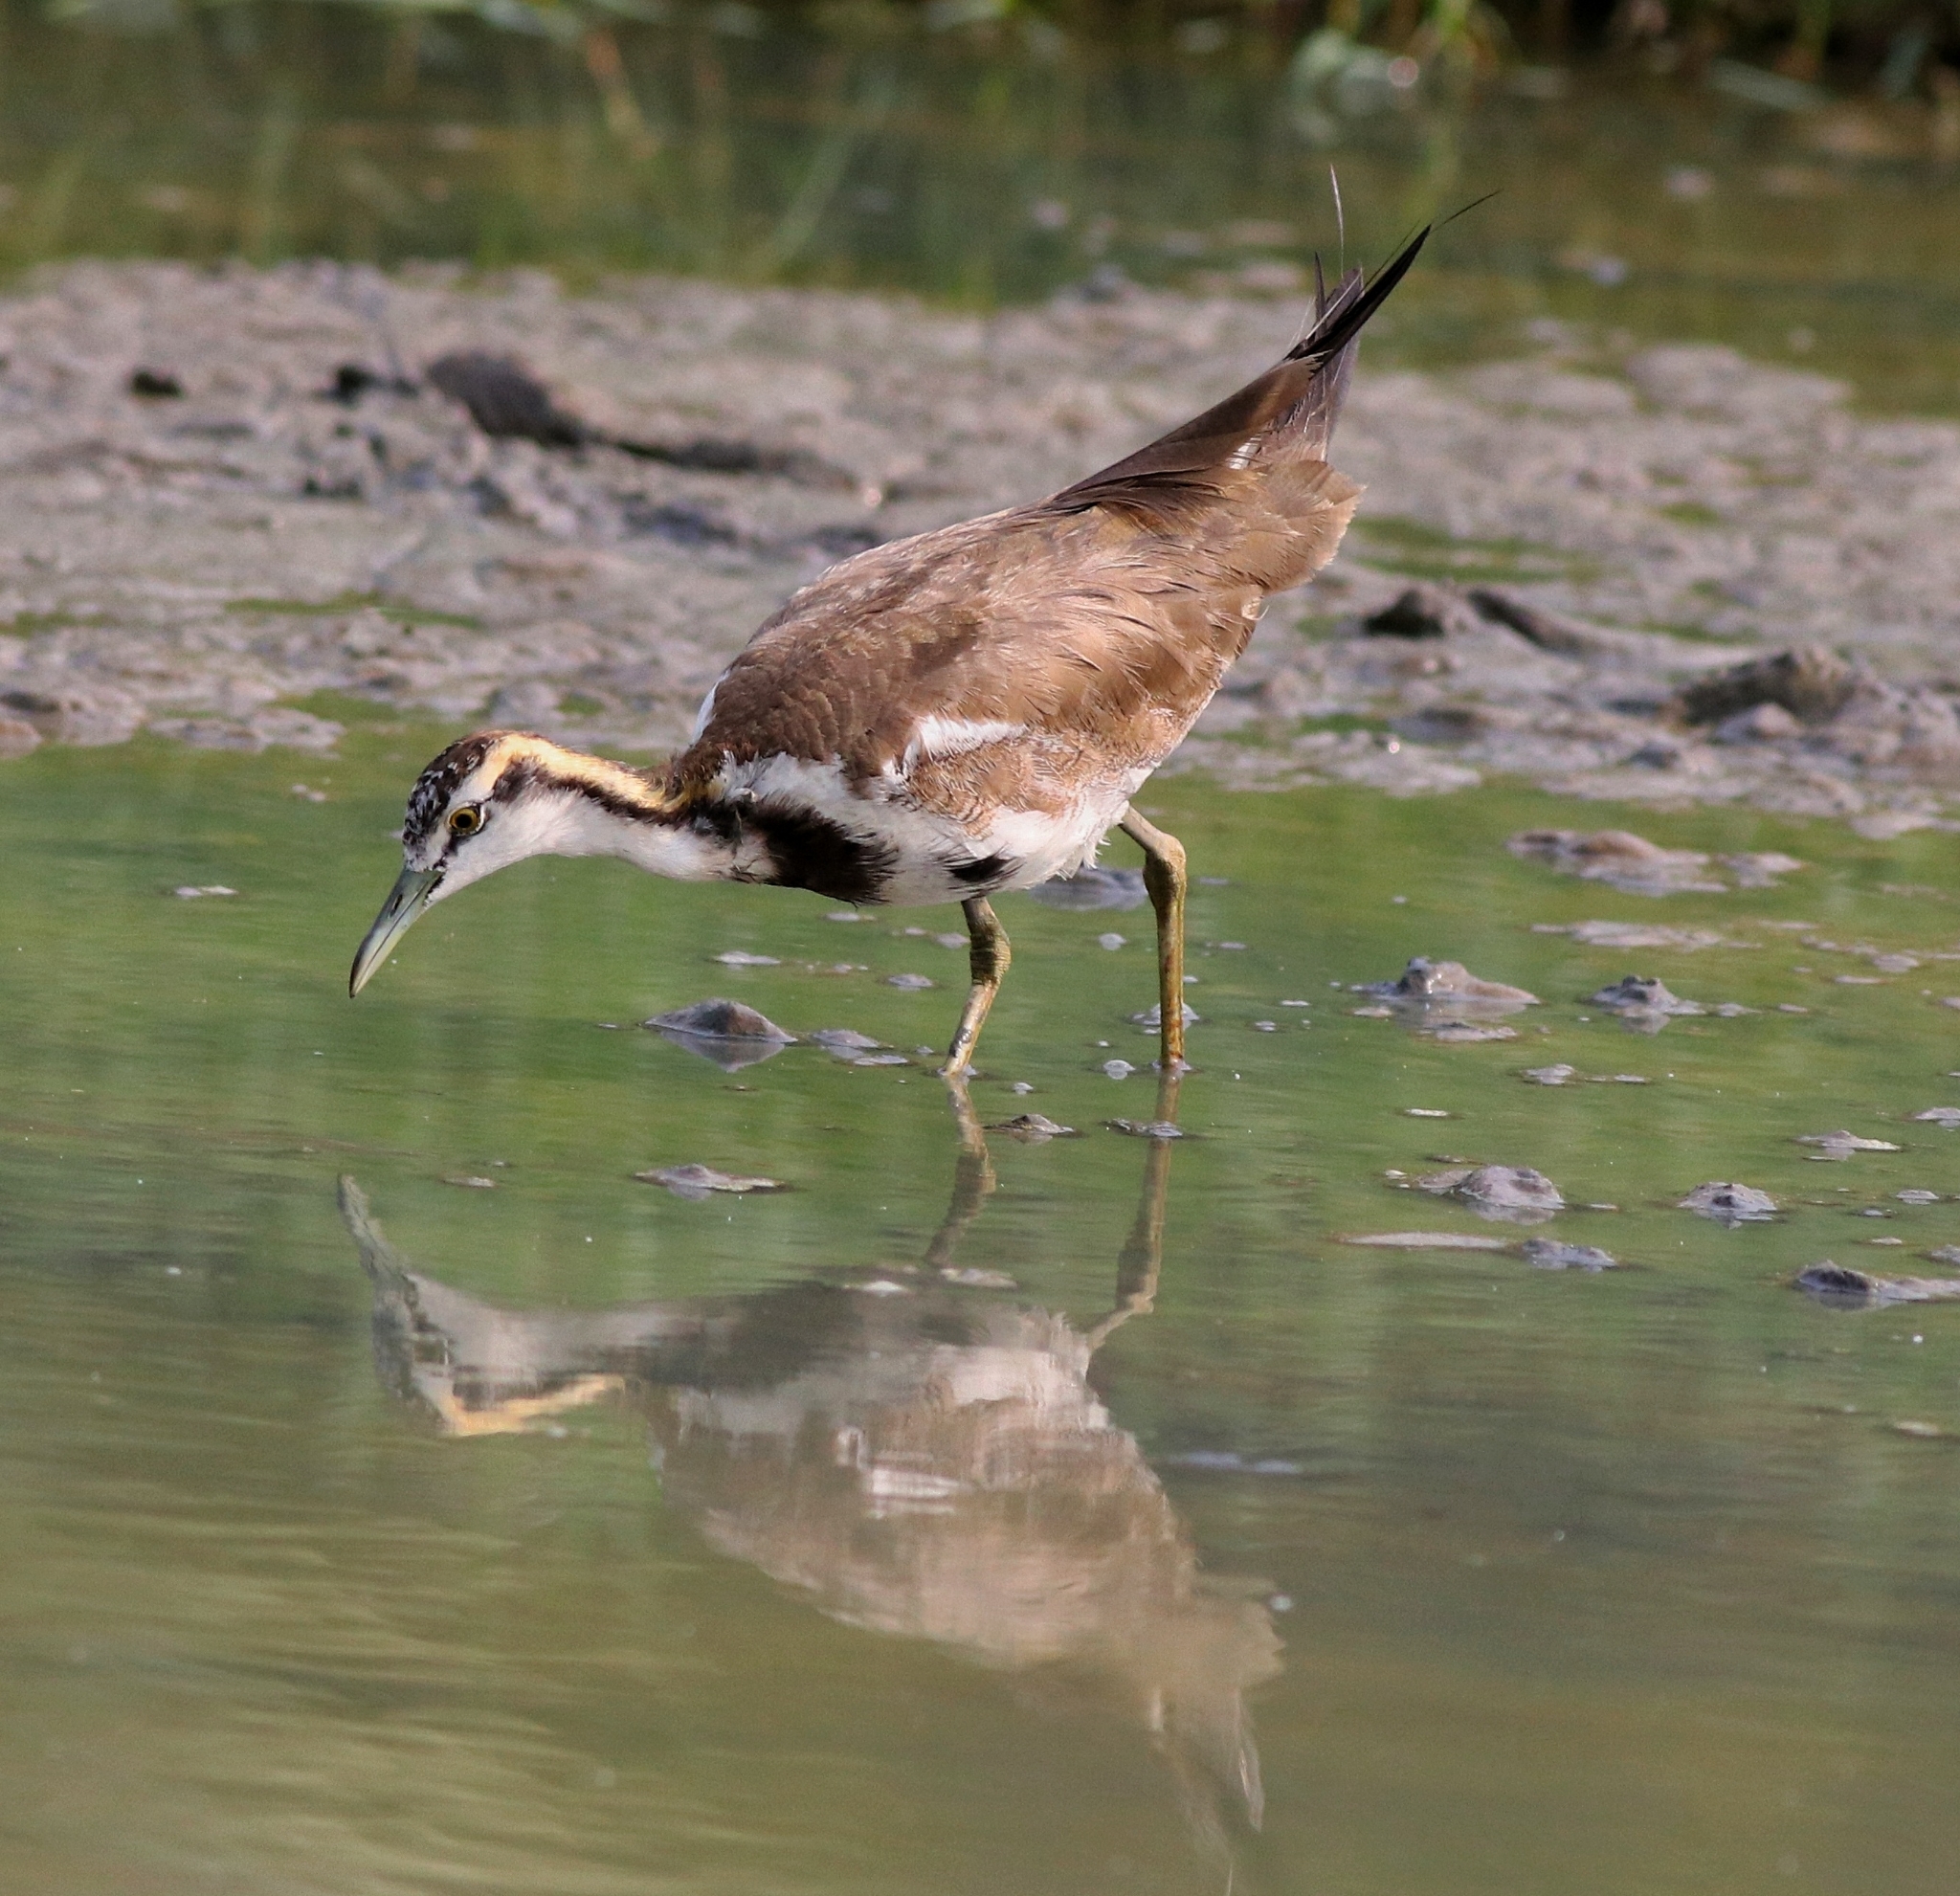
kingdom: Animalia
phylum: Chordata
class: Aves
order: Charadriiformes
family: Jacanidae
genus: Hydrophasianus
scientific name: Hydrophasianus chirurgus
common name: Pheasant-tailed jacana
